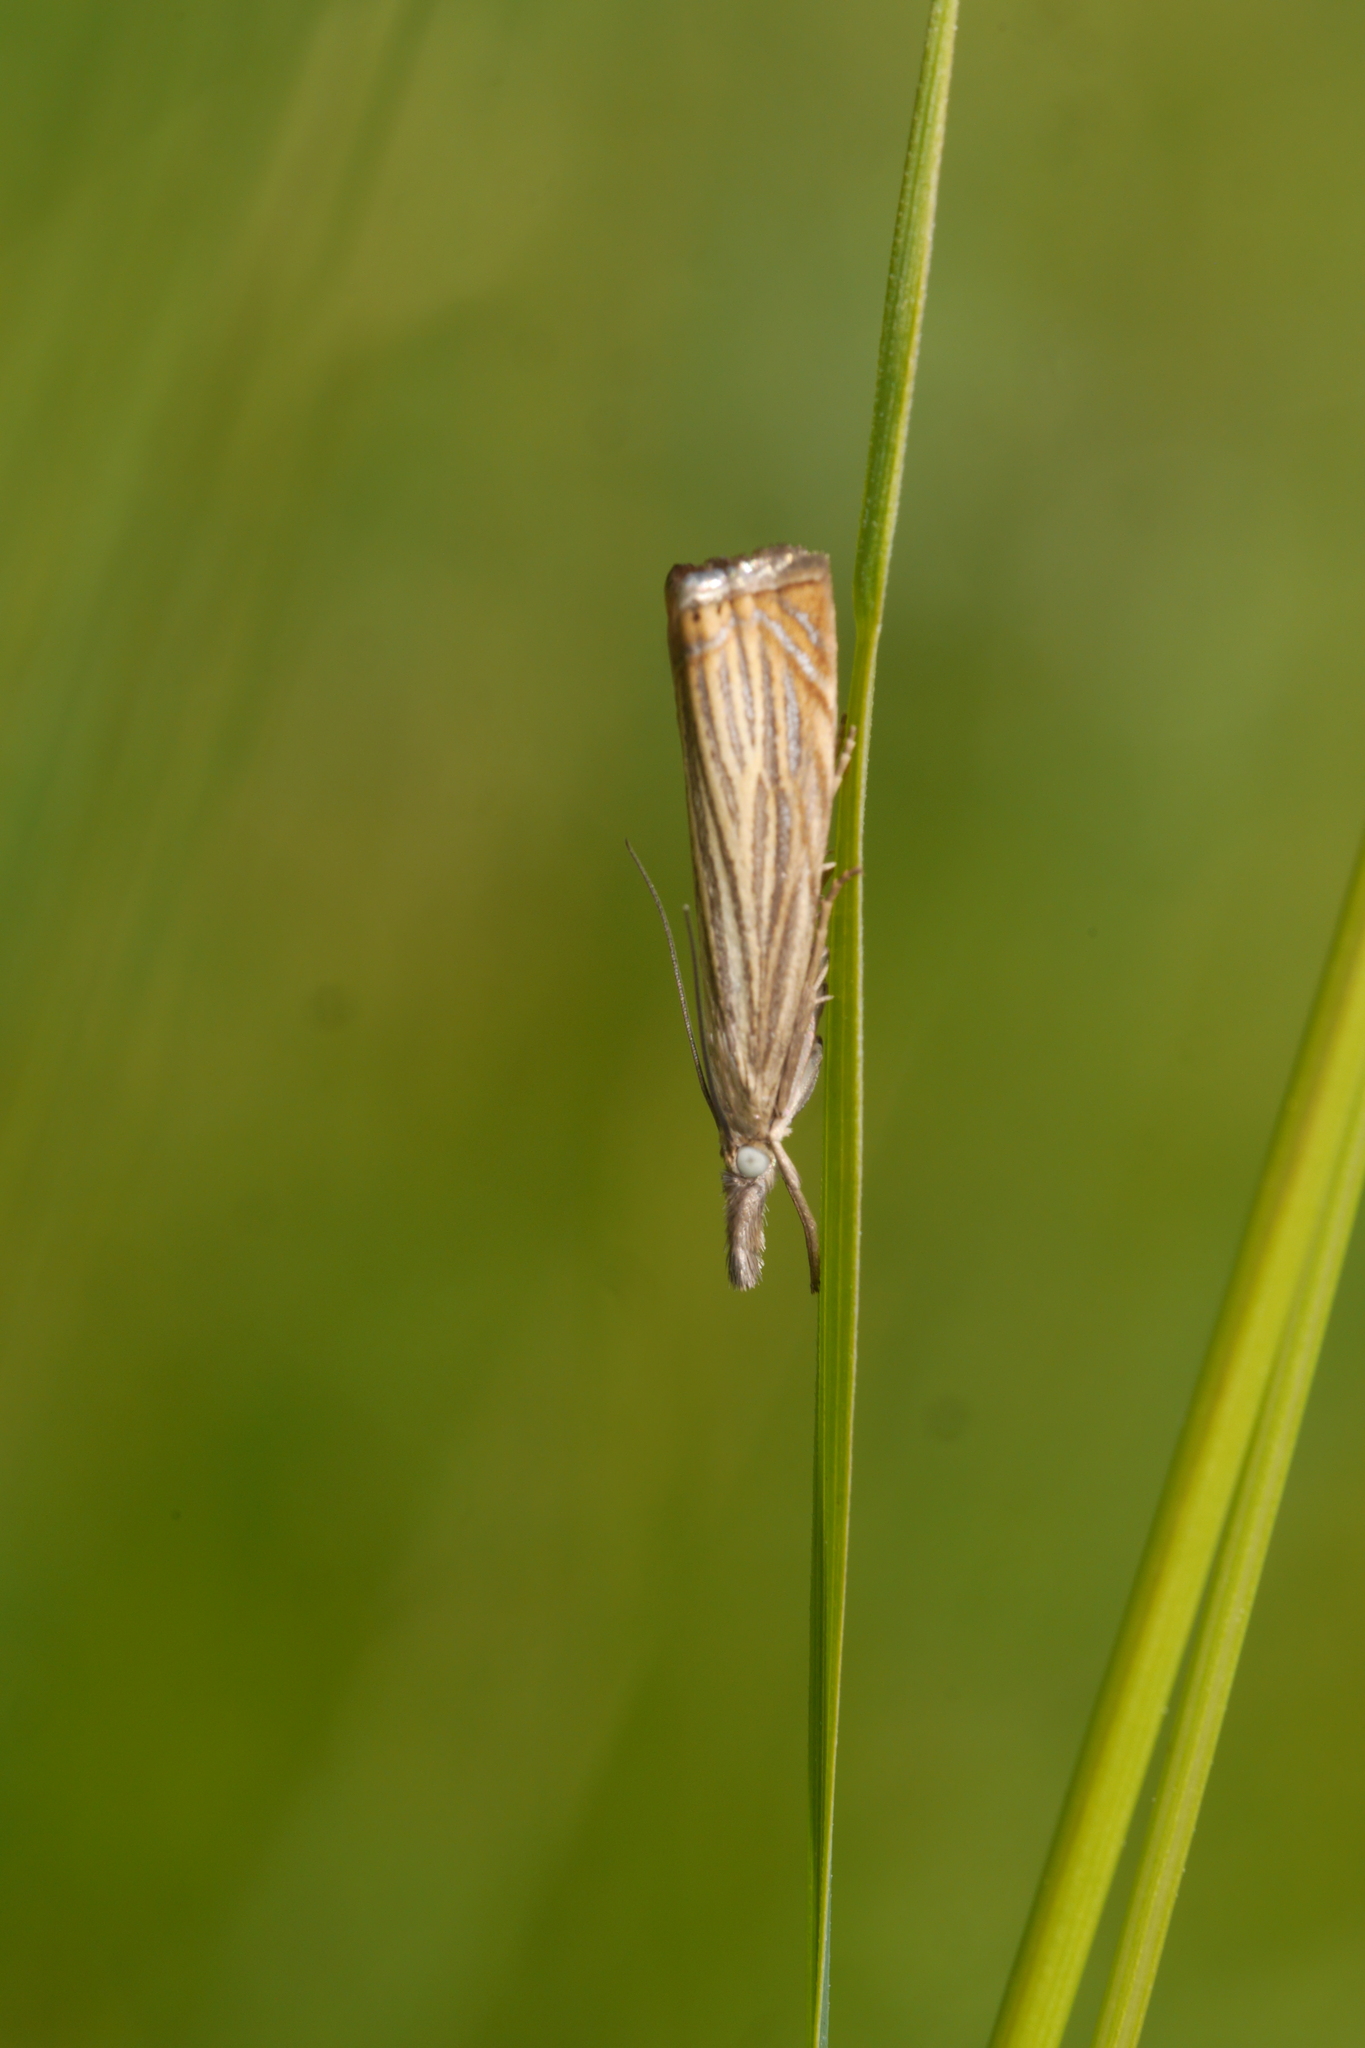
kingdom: Animalia
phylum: Arthropoda
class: Insecta
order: Lepidoptera
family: Crambidae
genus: Chrysoteuchia
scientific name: Chrysoteuchia culmella
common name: Garden grass-veneer
